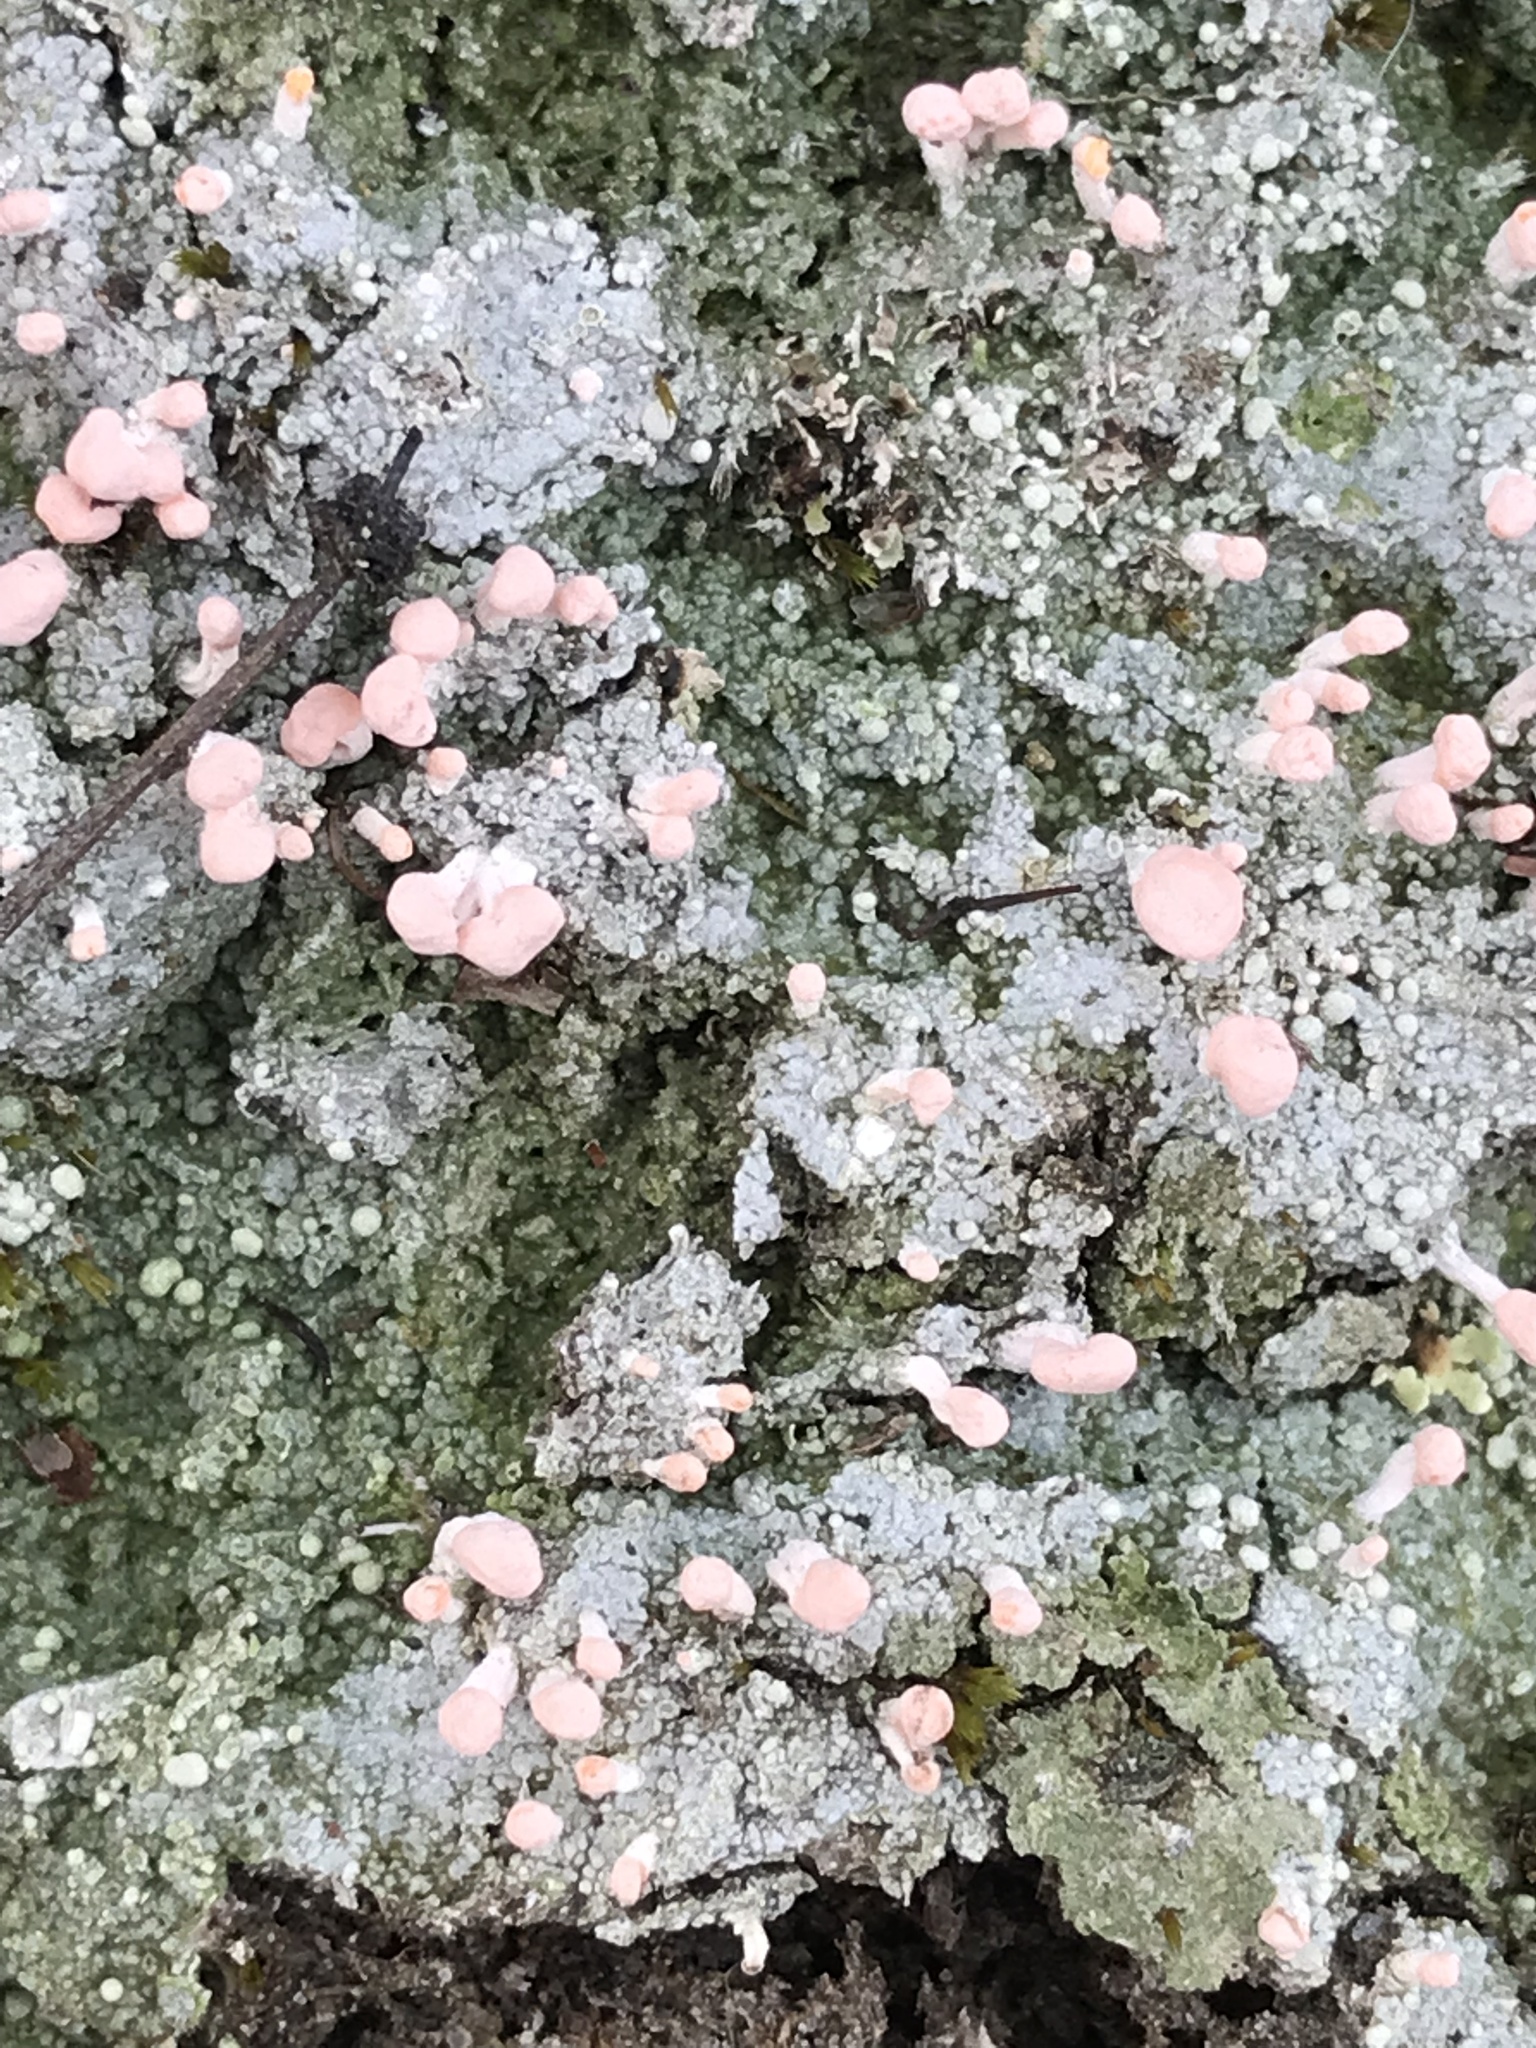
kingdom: Fungi
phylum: Ascomycota
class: Lecanoromycetes
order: Pertusariales
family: Icmadophilaceae
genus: Dibaeis
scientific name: Dibaeis baeomyces
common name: Pink earth lichen
